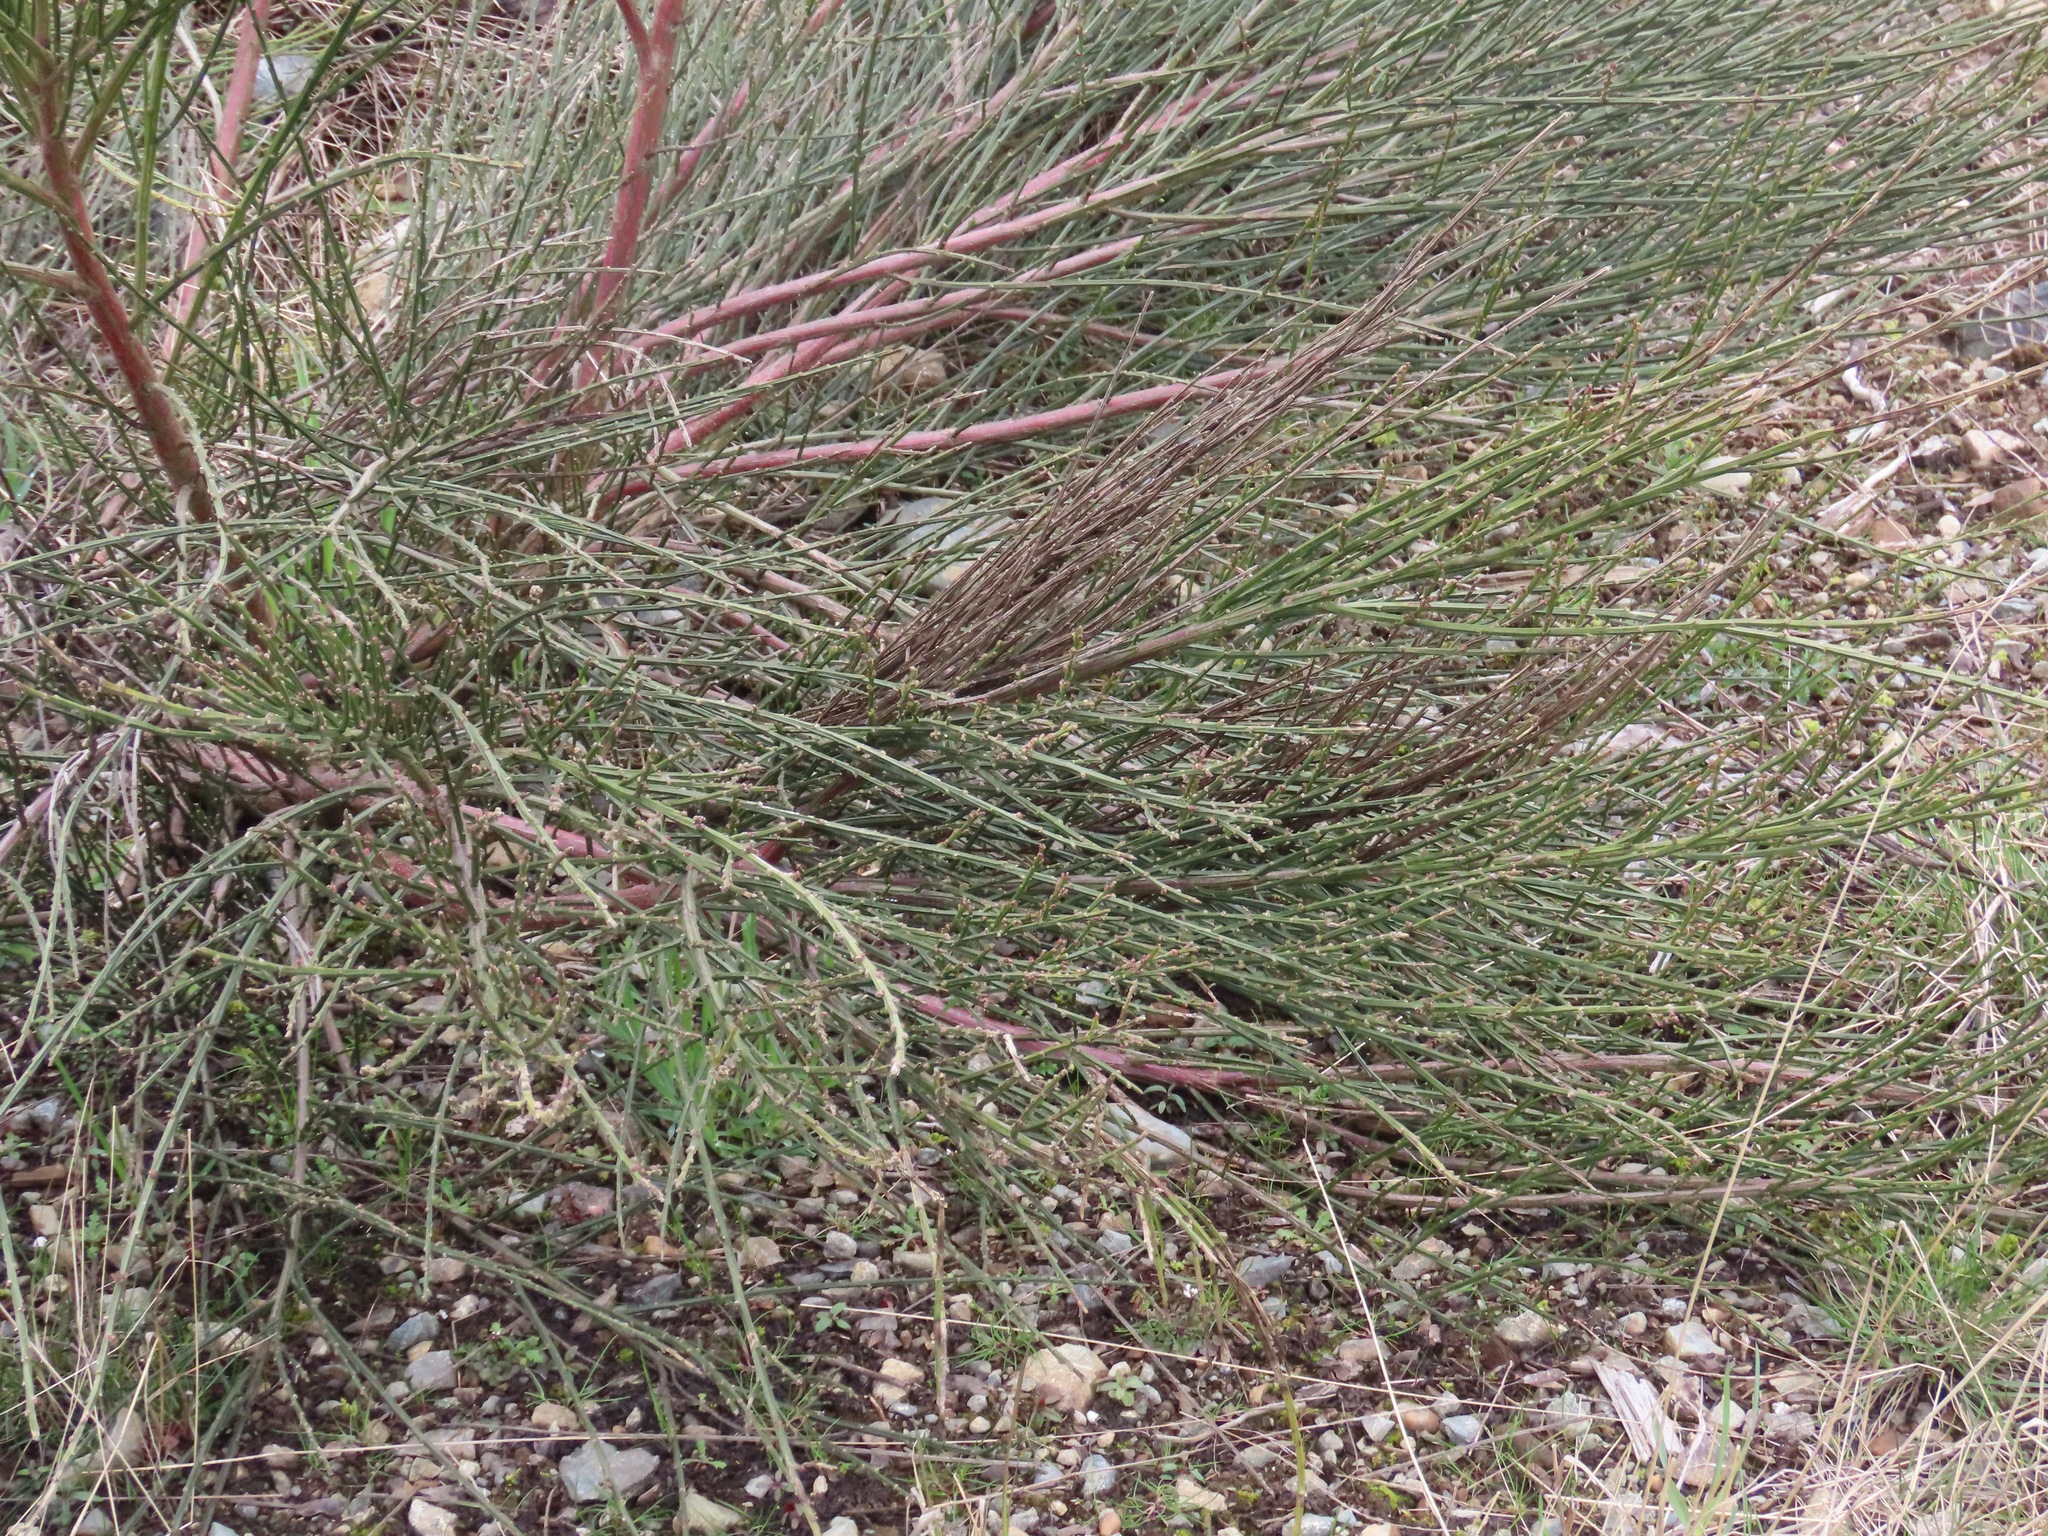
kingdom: Plantae
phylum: Tracheophyta
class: Magnoliopsida
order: Fabales
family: Fabaceae
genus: Cytisus
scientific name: Cytisus scoparius
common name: Scotch broom
